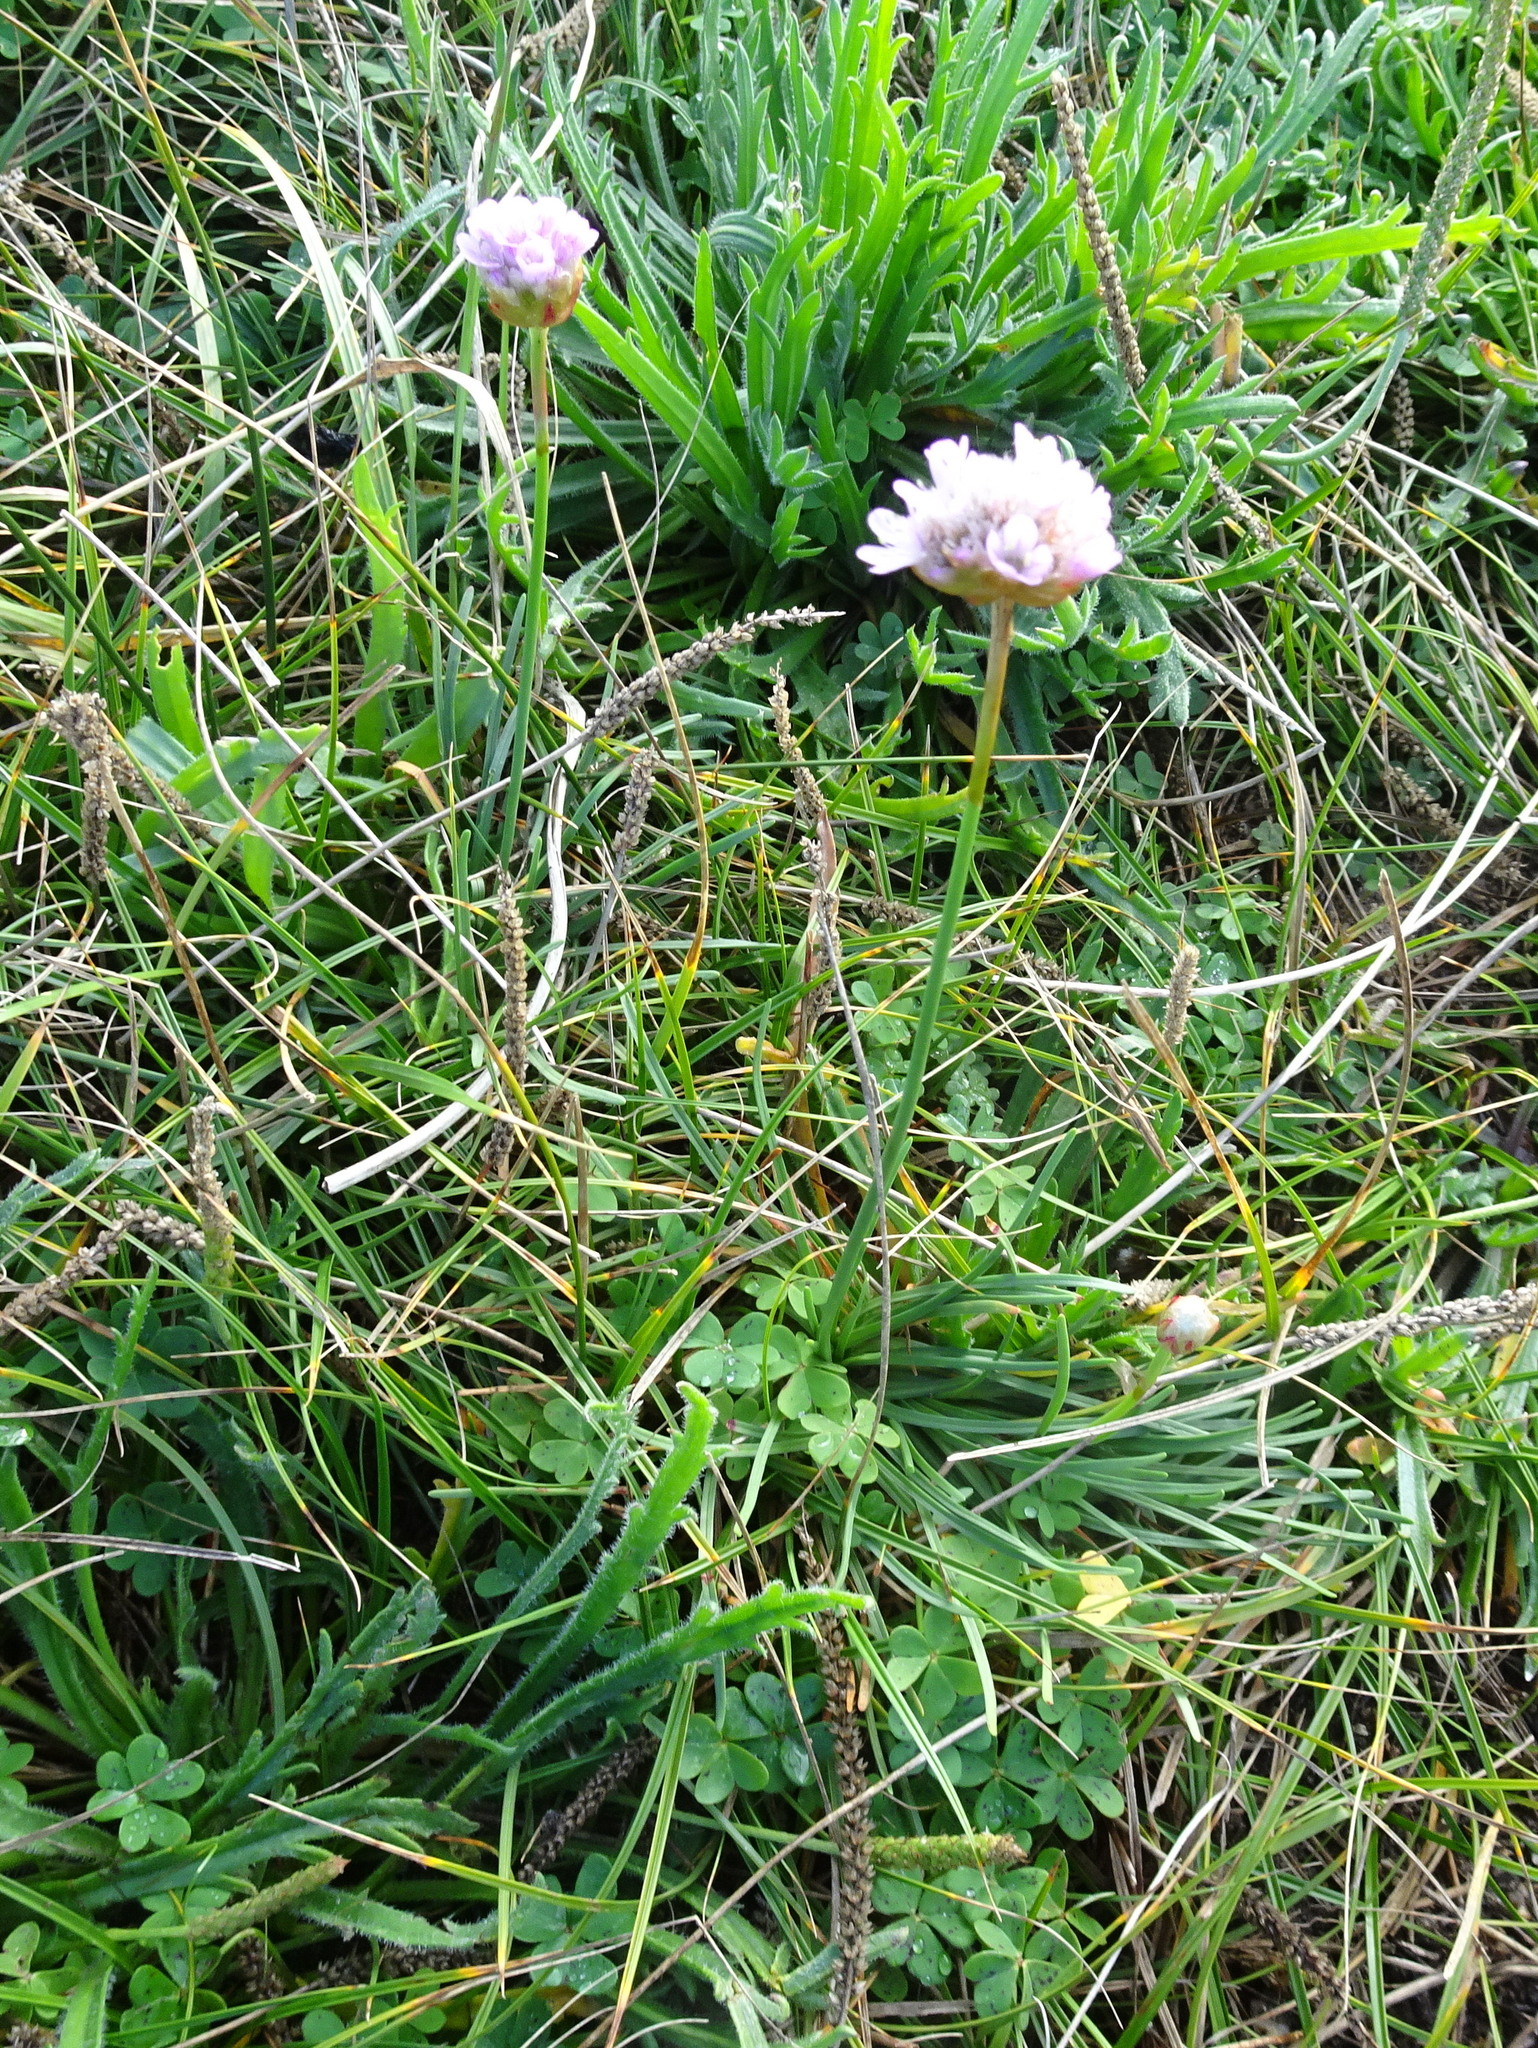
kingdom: Plantae
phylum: Tracheophyta
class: Magnoliopsida
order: Caryophyllales
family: Plumbaginaceae
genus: Armeria
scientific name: Armeria maritima
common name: Thrift
